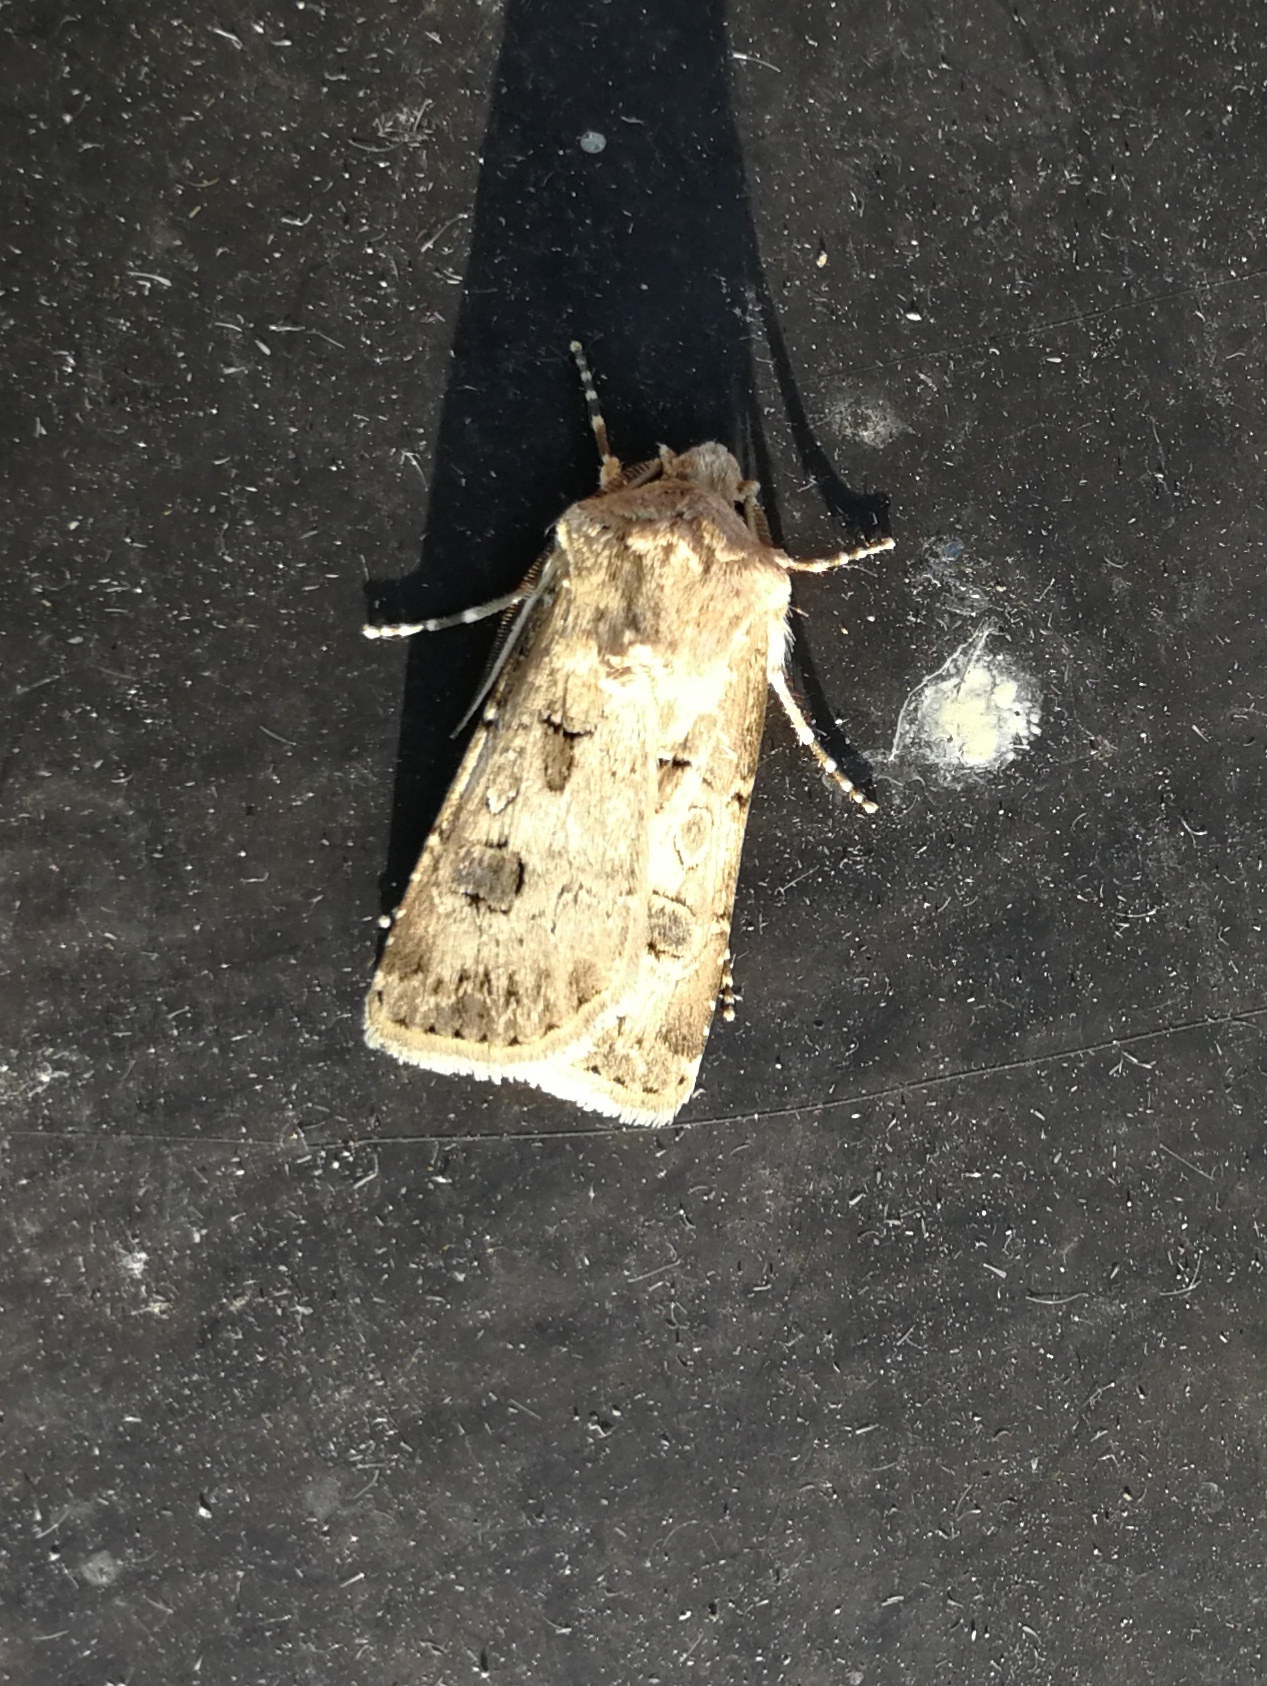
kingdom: Animalia
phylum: Arthropoda
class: Insecta
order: Lepidoptera
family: Noctuidae
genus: Agrotis
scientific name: Agrotis bigramma
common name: Great dart
